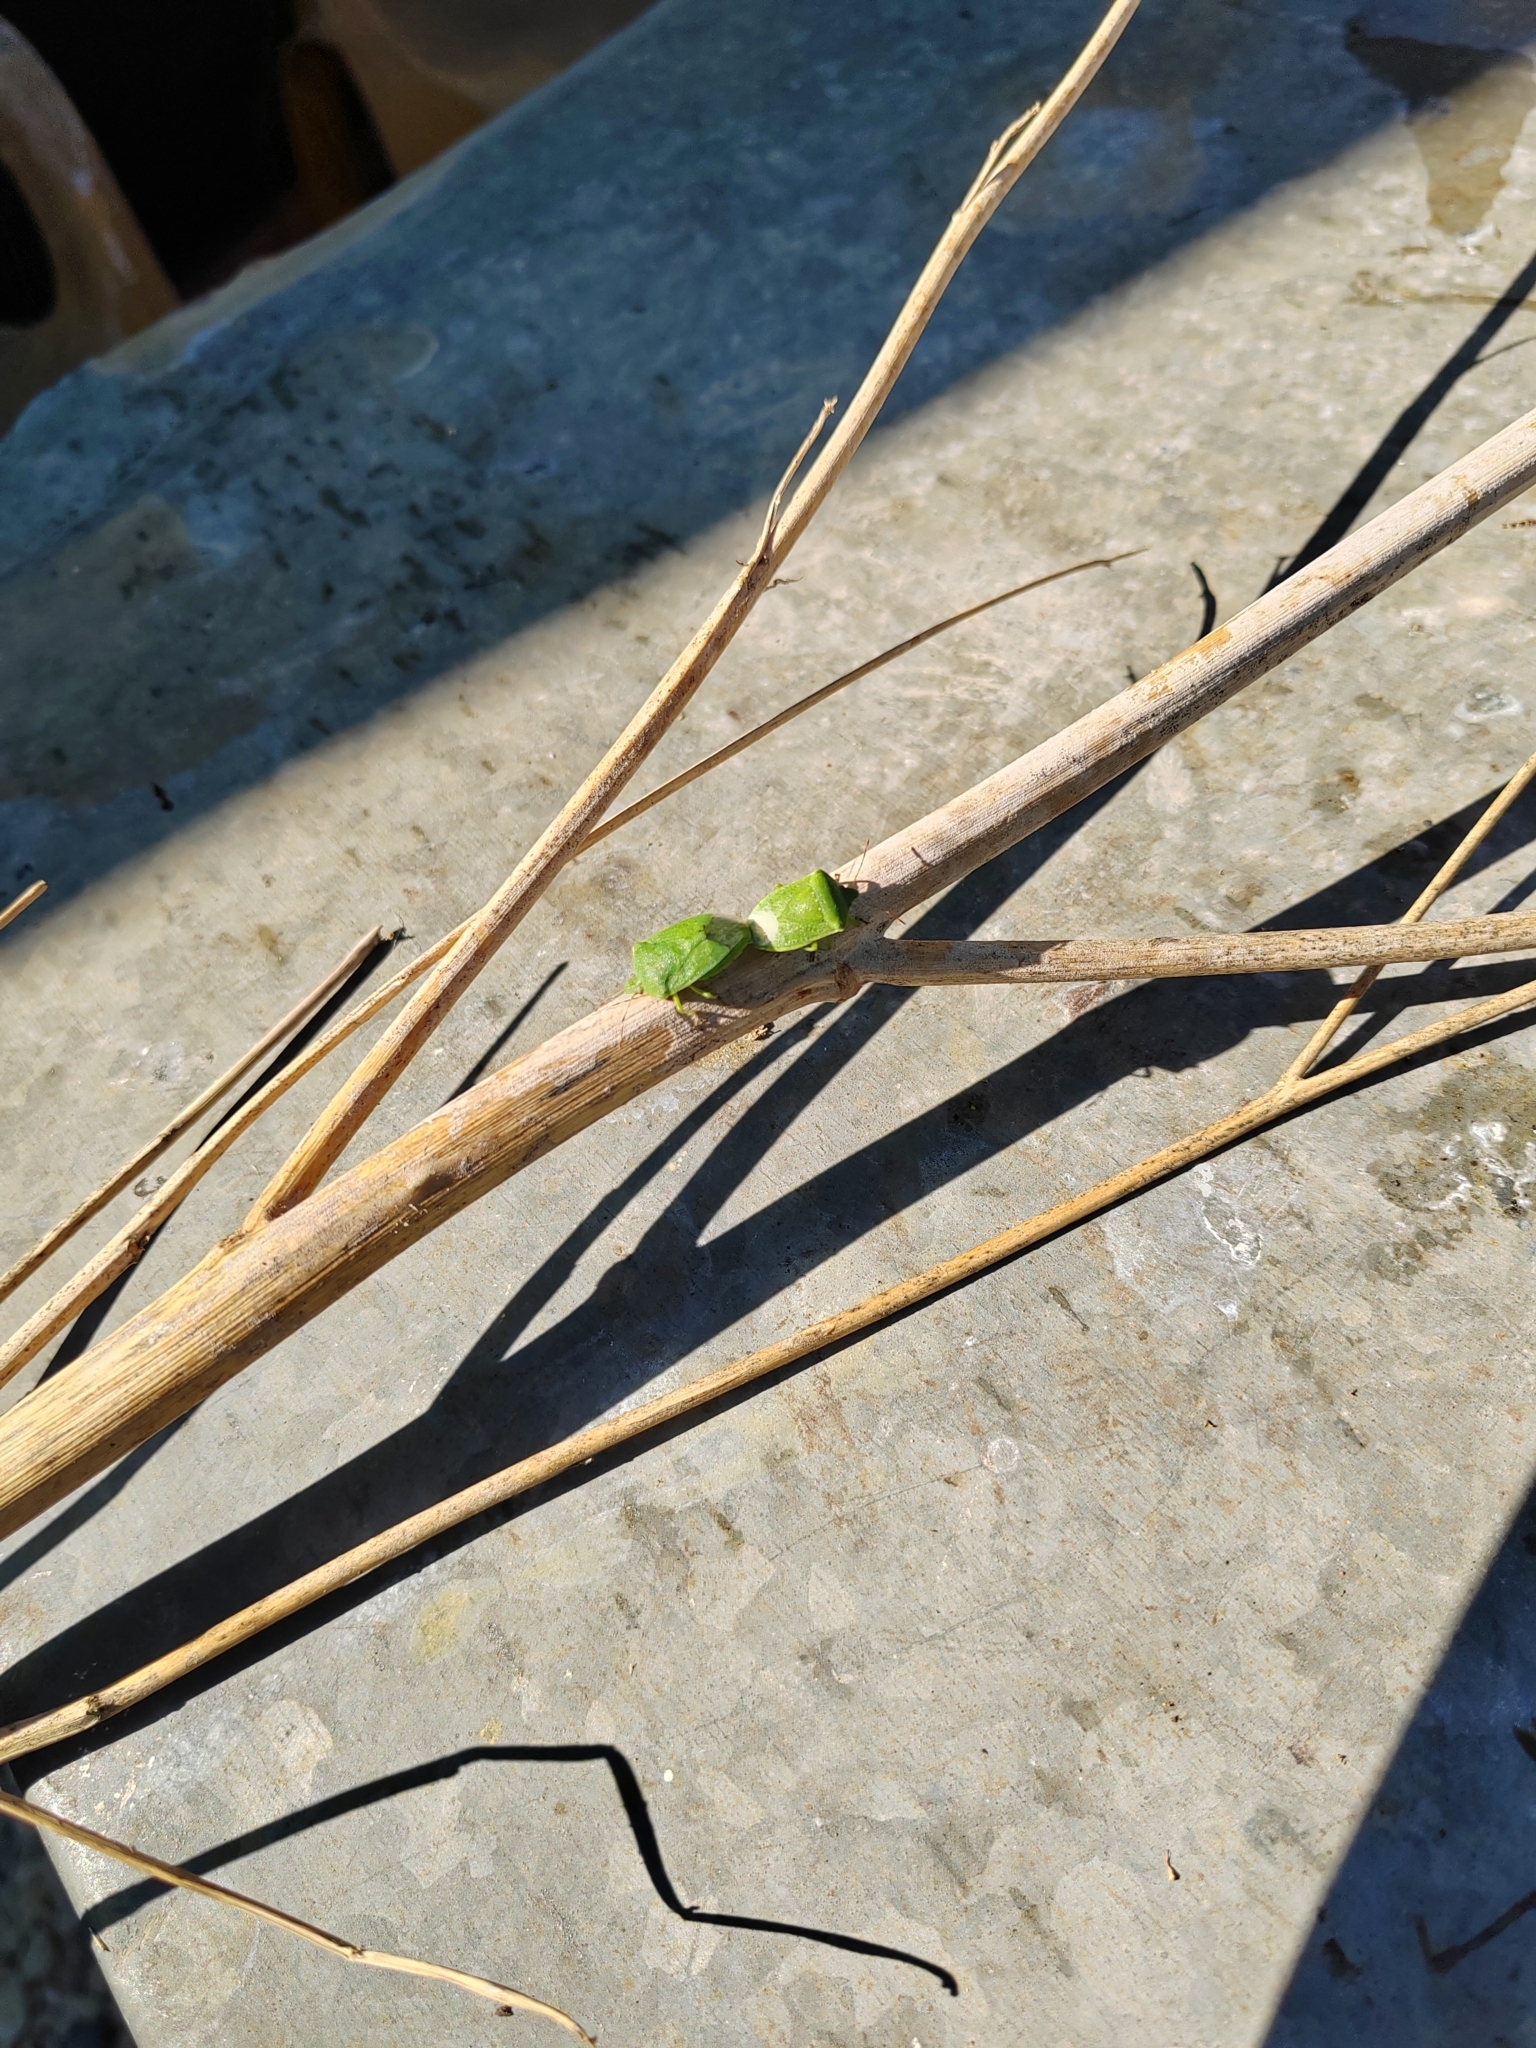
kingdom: Animalia
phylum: Arthropoda
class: Insecta
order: Hemiptera
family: Pentatomidae
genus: Nezara
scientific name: Nezara viridula
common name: Southern green stink bug
